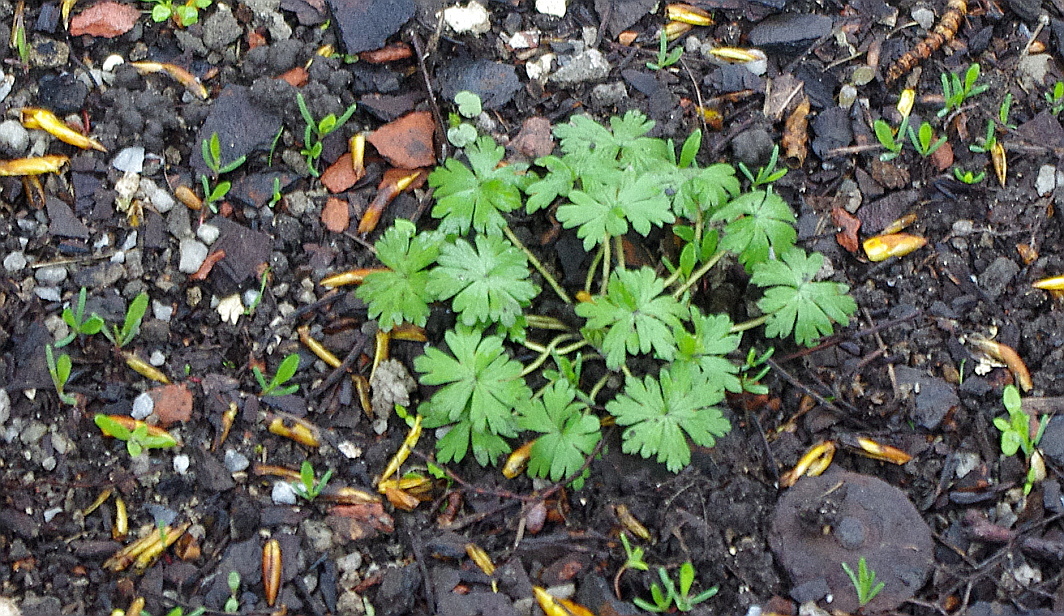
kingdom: Plantae
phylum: Tracheophyta
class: Magnoliopsida
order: Geraniales
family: Geraniaceae
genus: Geranium
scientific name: Geranium sibiricum
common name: Siberian crane's-bill
